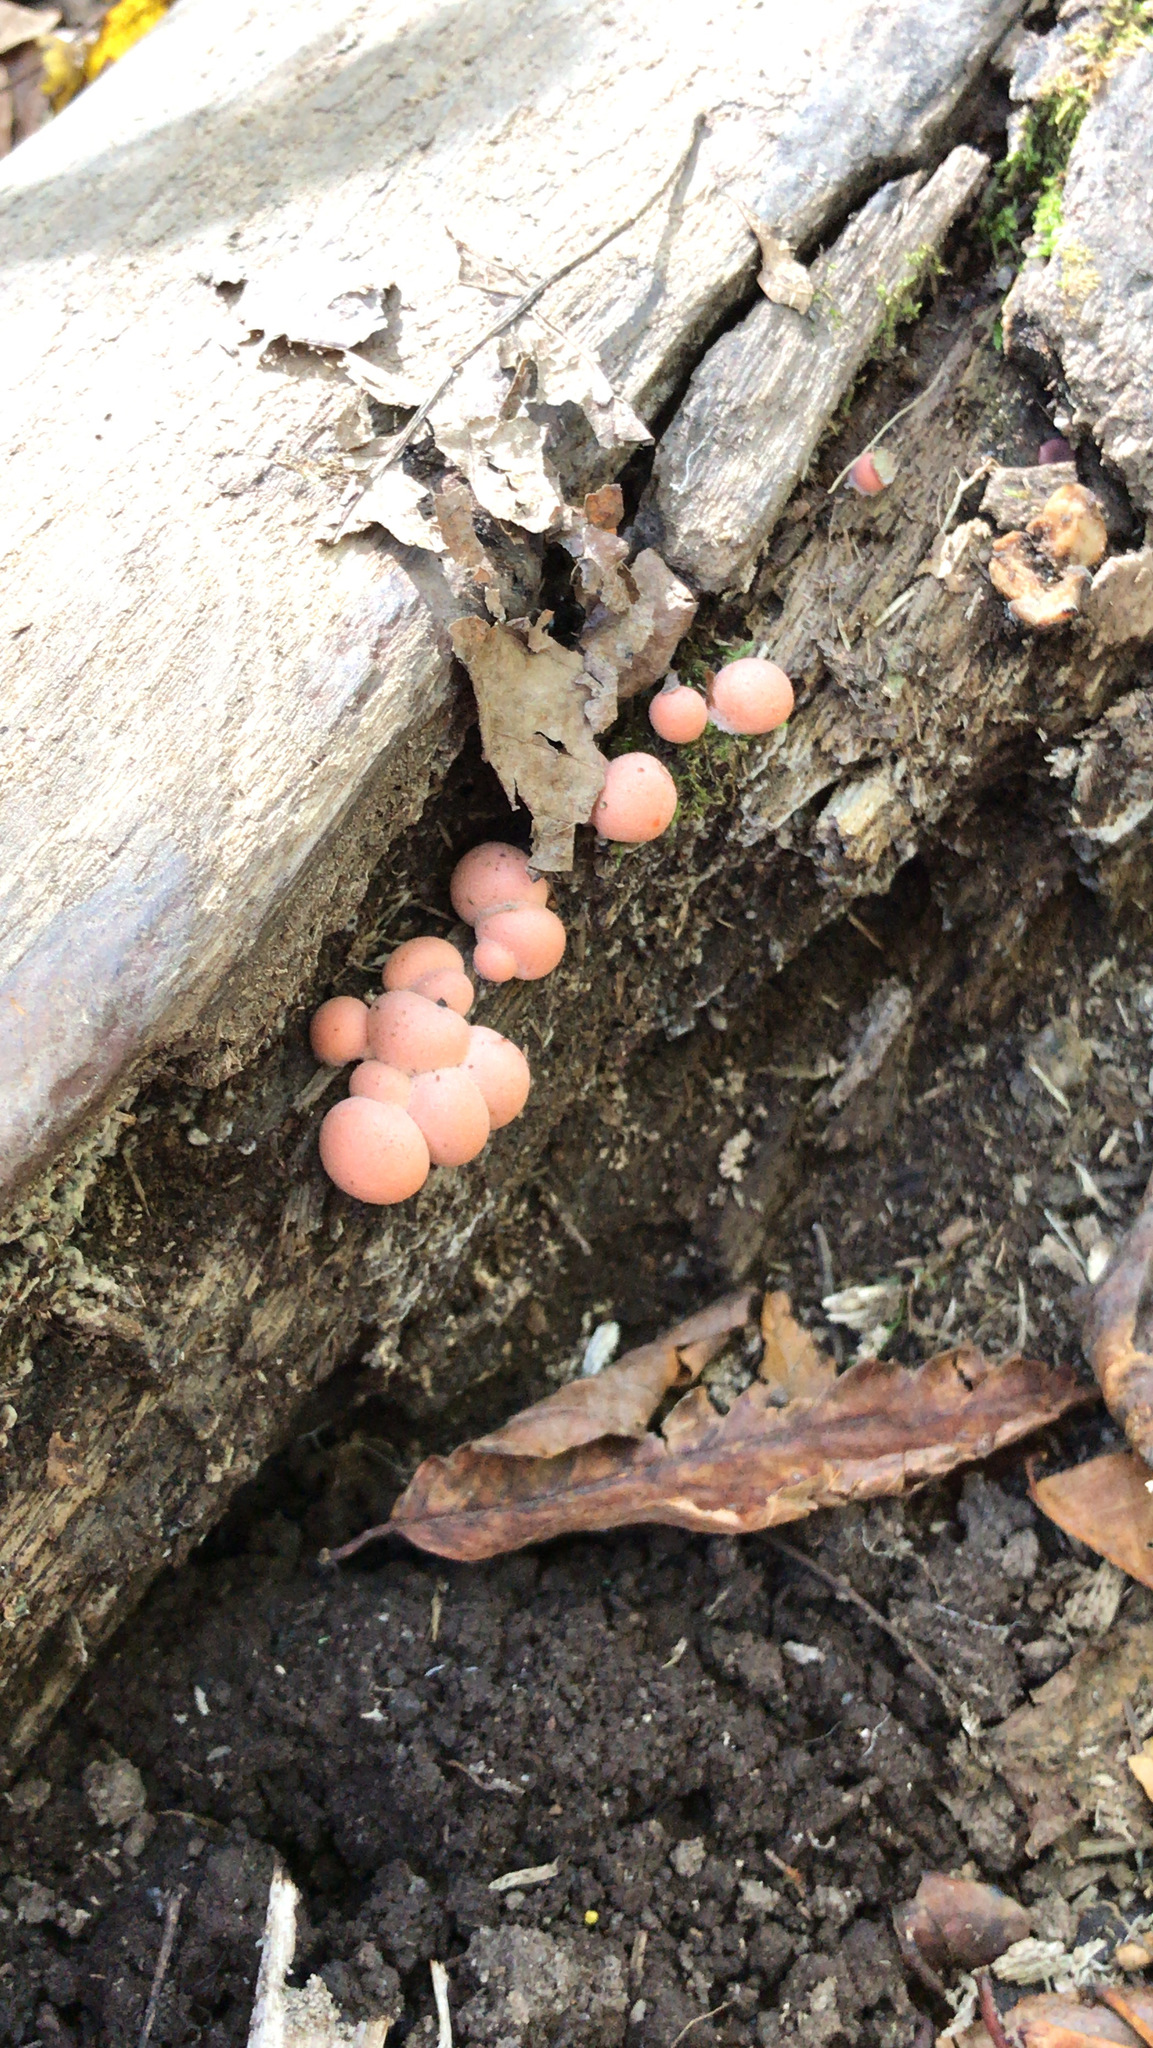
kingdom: Protozoa
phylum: Mycetozoa
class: Myxomycetes
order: Cribrariales
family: Tubiferaceae
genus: Lycogala
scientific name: Lycogala epidendrum
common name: Wolf's milk
